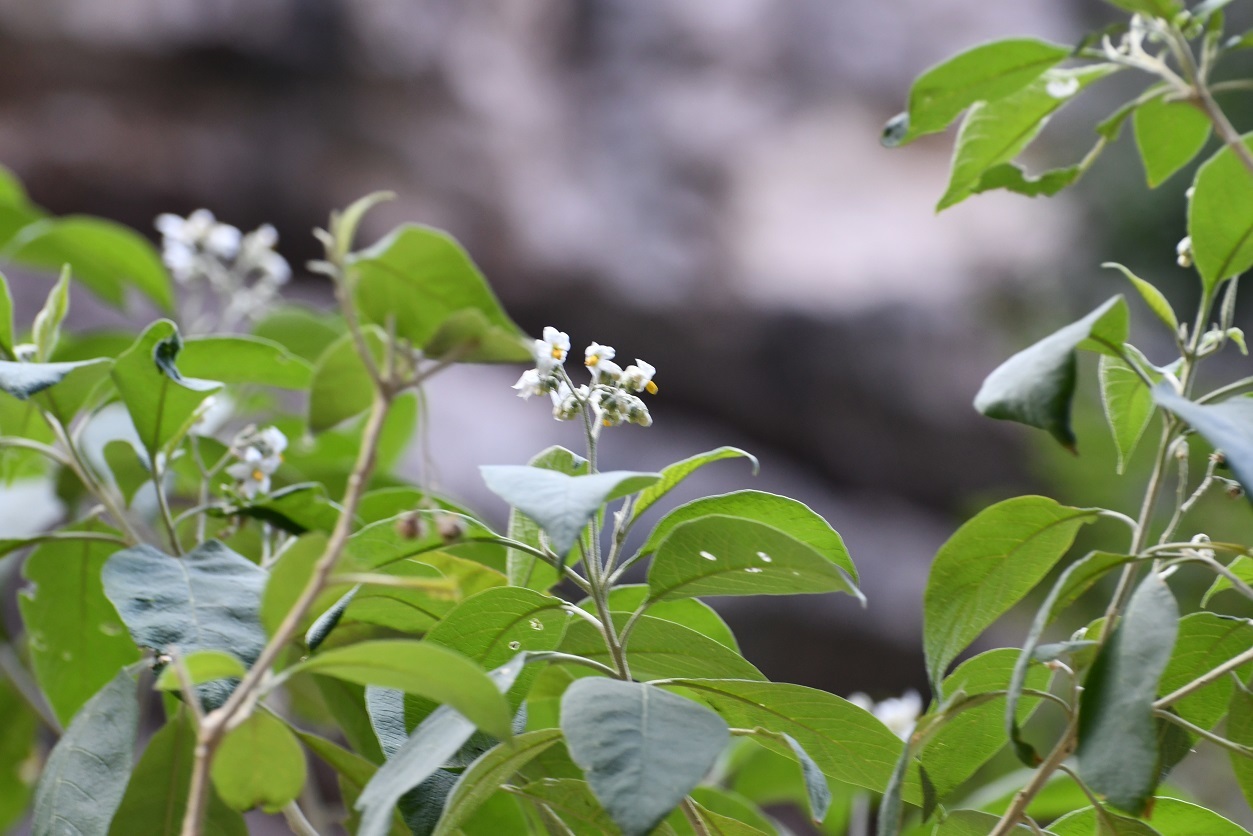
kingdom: Plantae
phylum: Tracheophyta
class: Magnoliopsida
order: Solanales
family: Solanaceae
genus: Solanum
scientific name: Solanum pulverulentifolium
